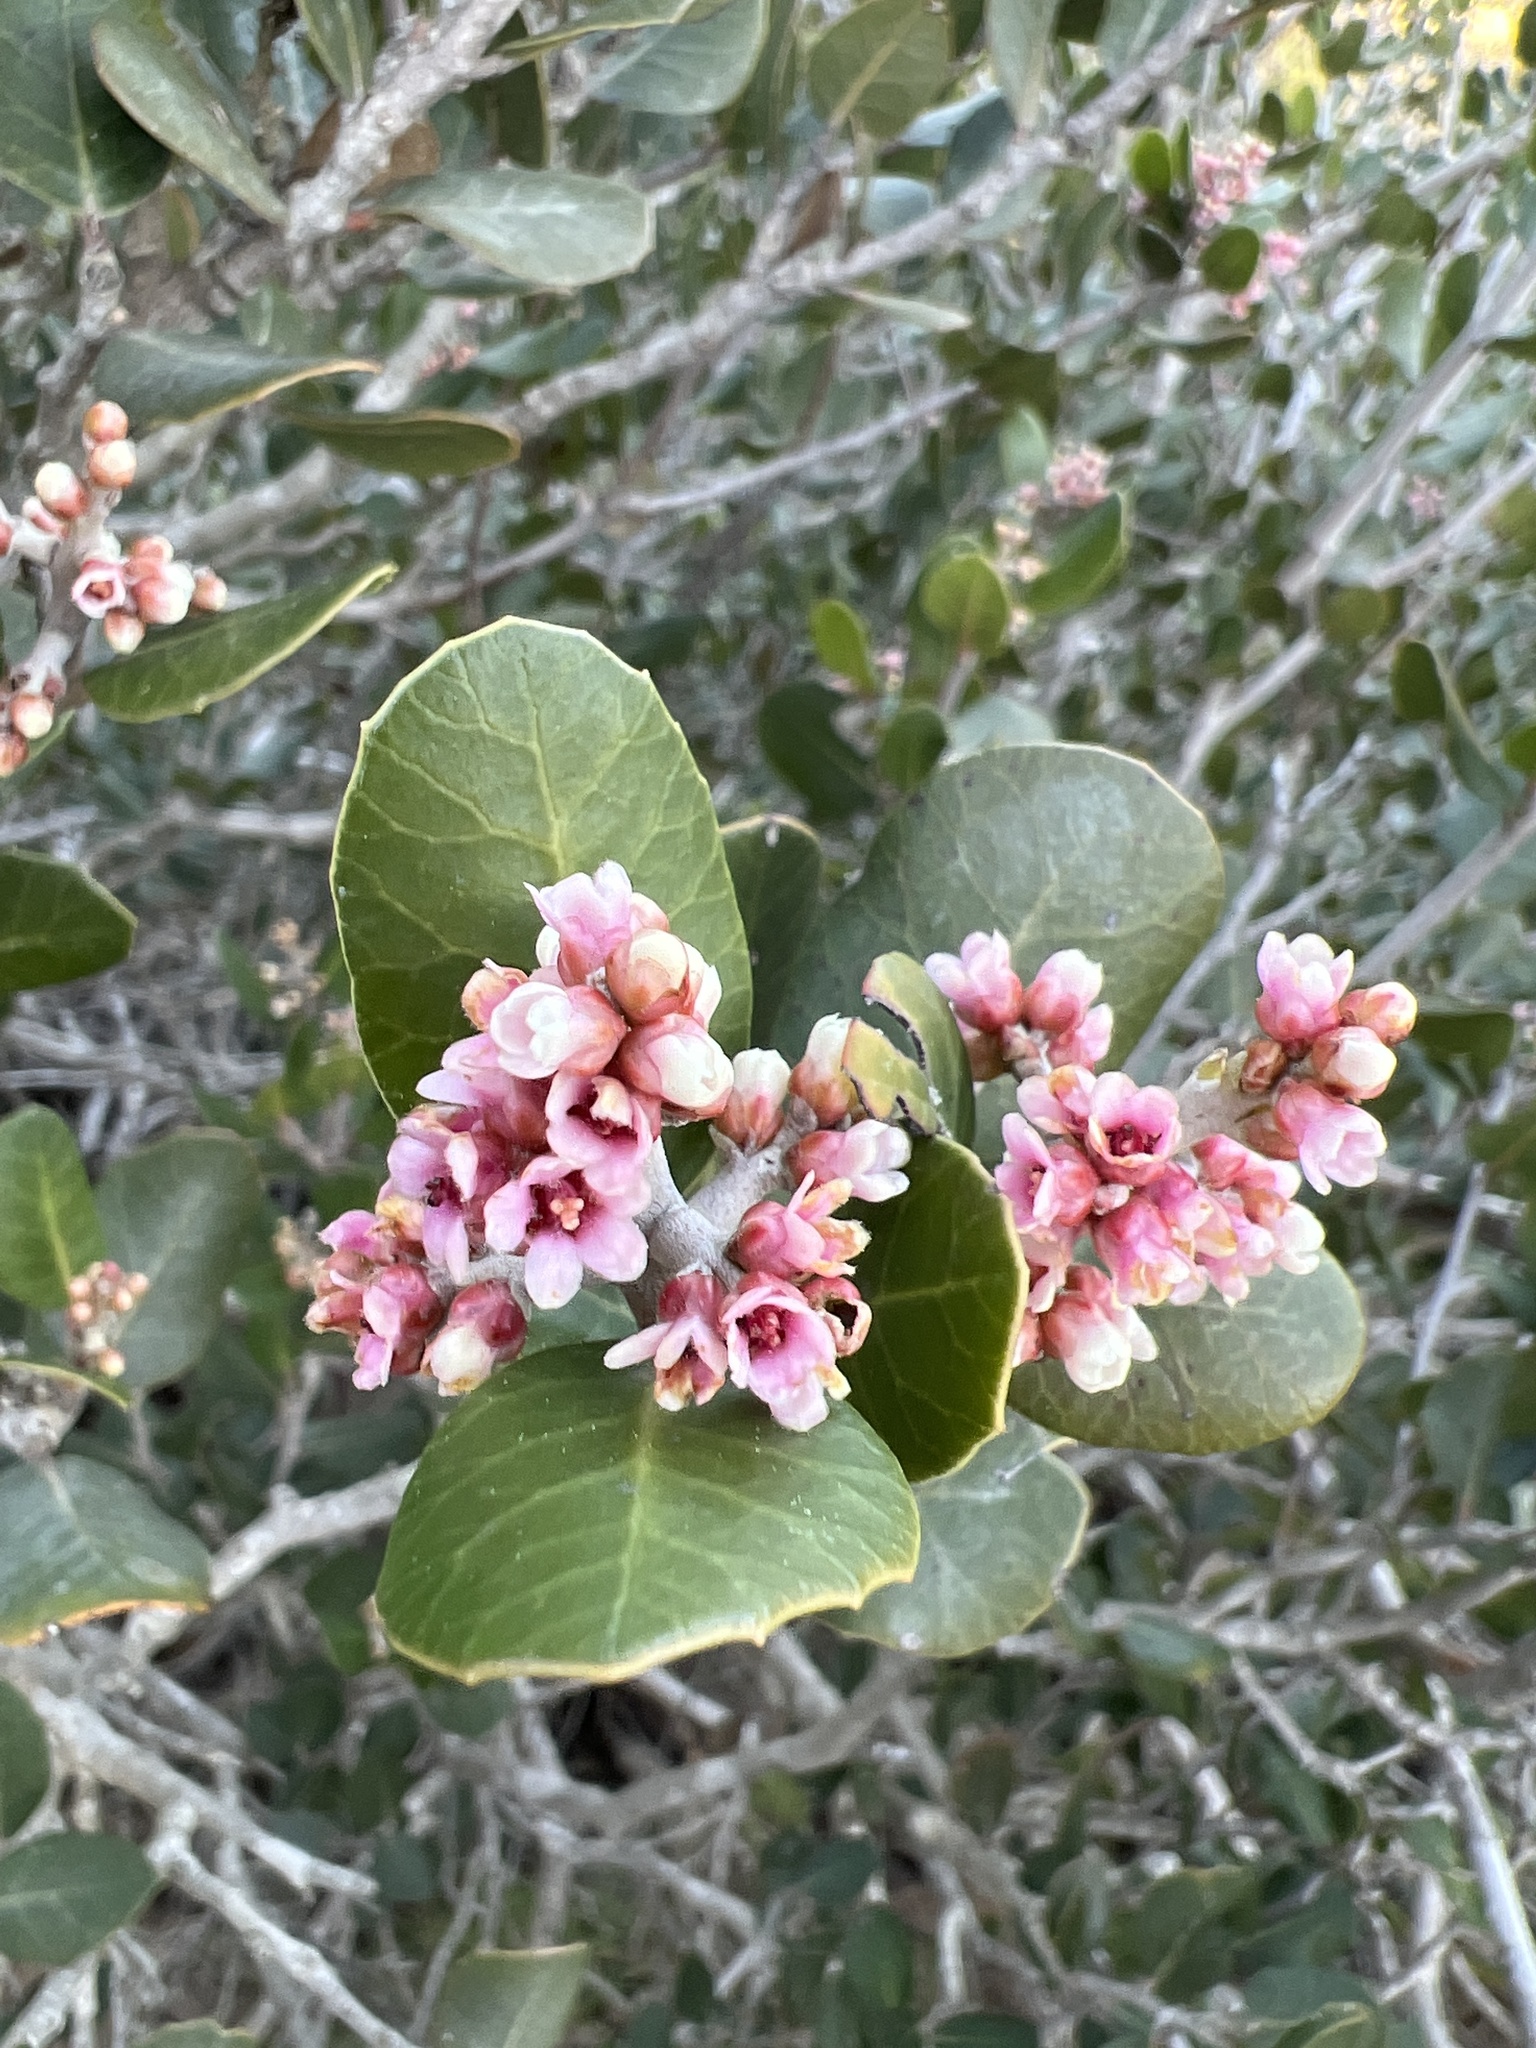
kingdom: Plantae
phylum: Tracheophyta
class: Magnoliopsida
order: Sapindales
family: Anacardiaceae
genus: Rhus
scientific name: Rhus integrifolia
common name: Lemonade sumac
